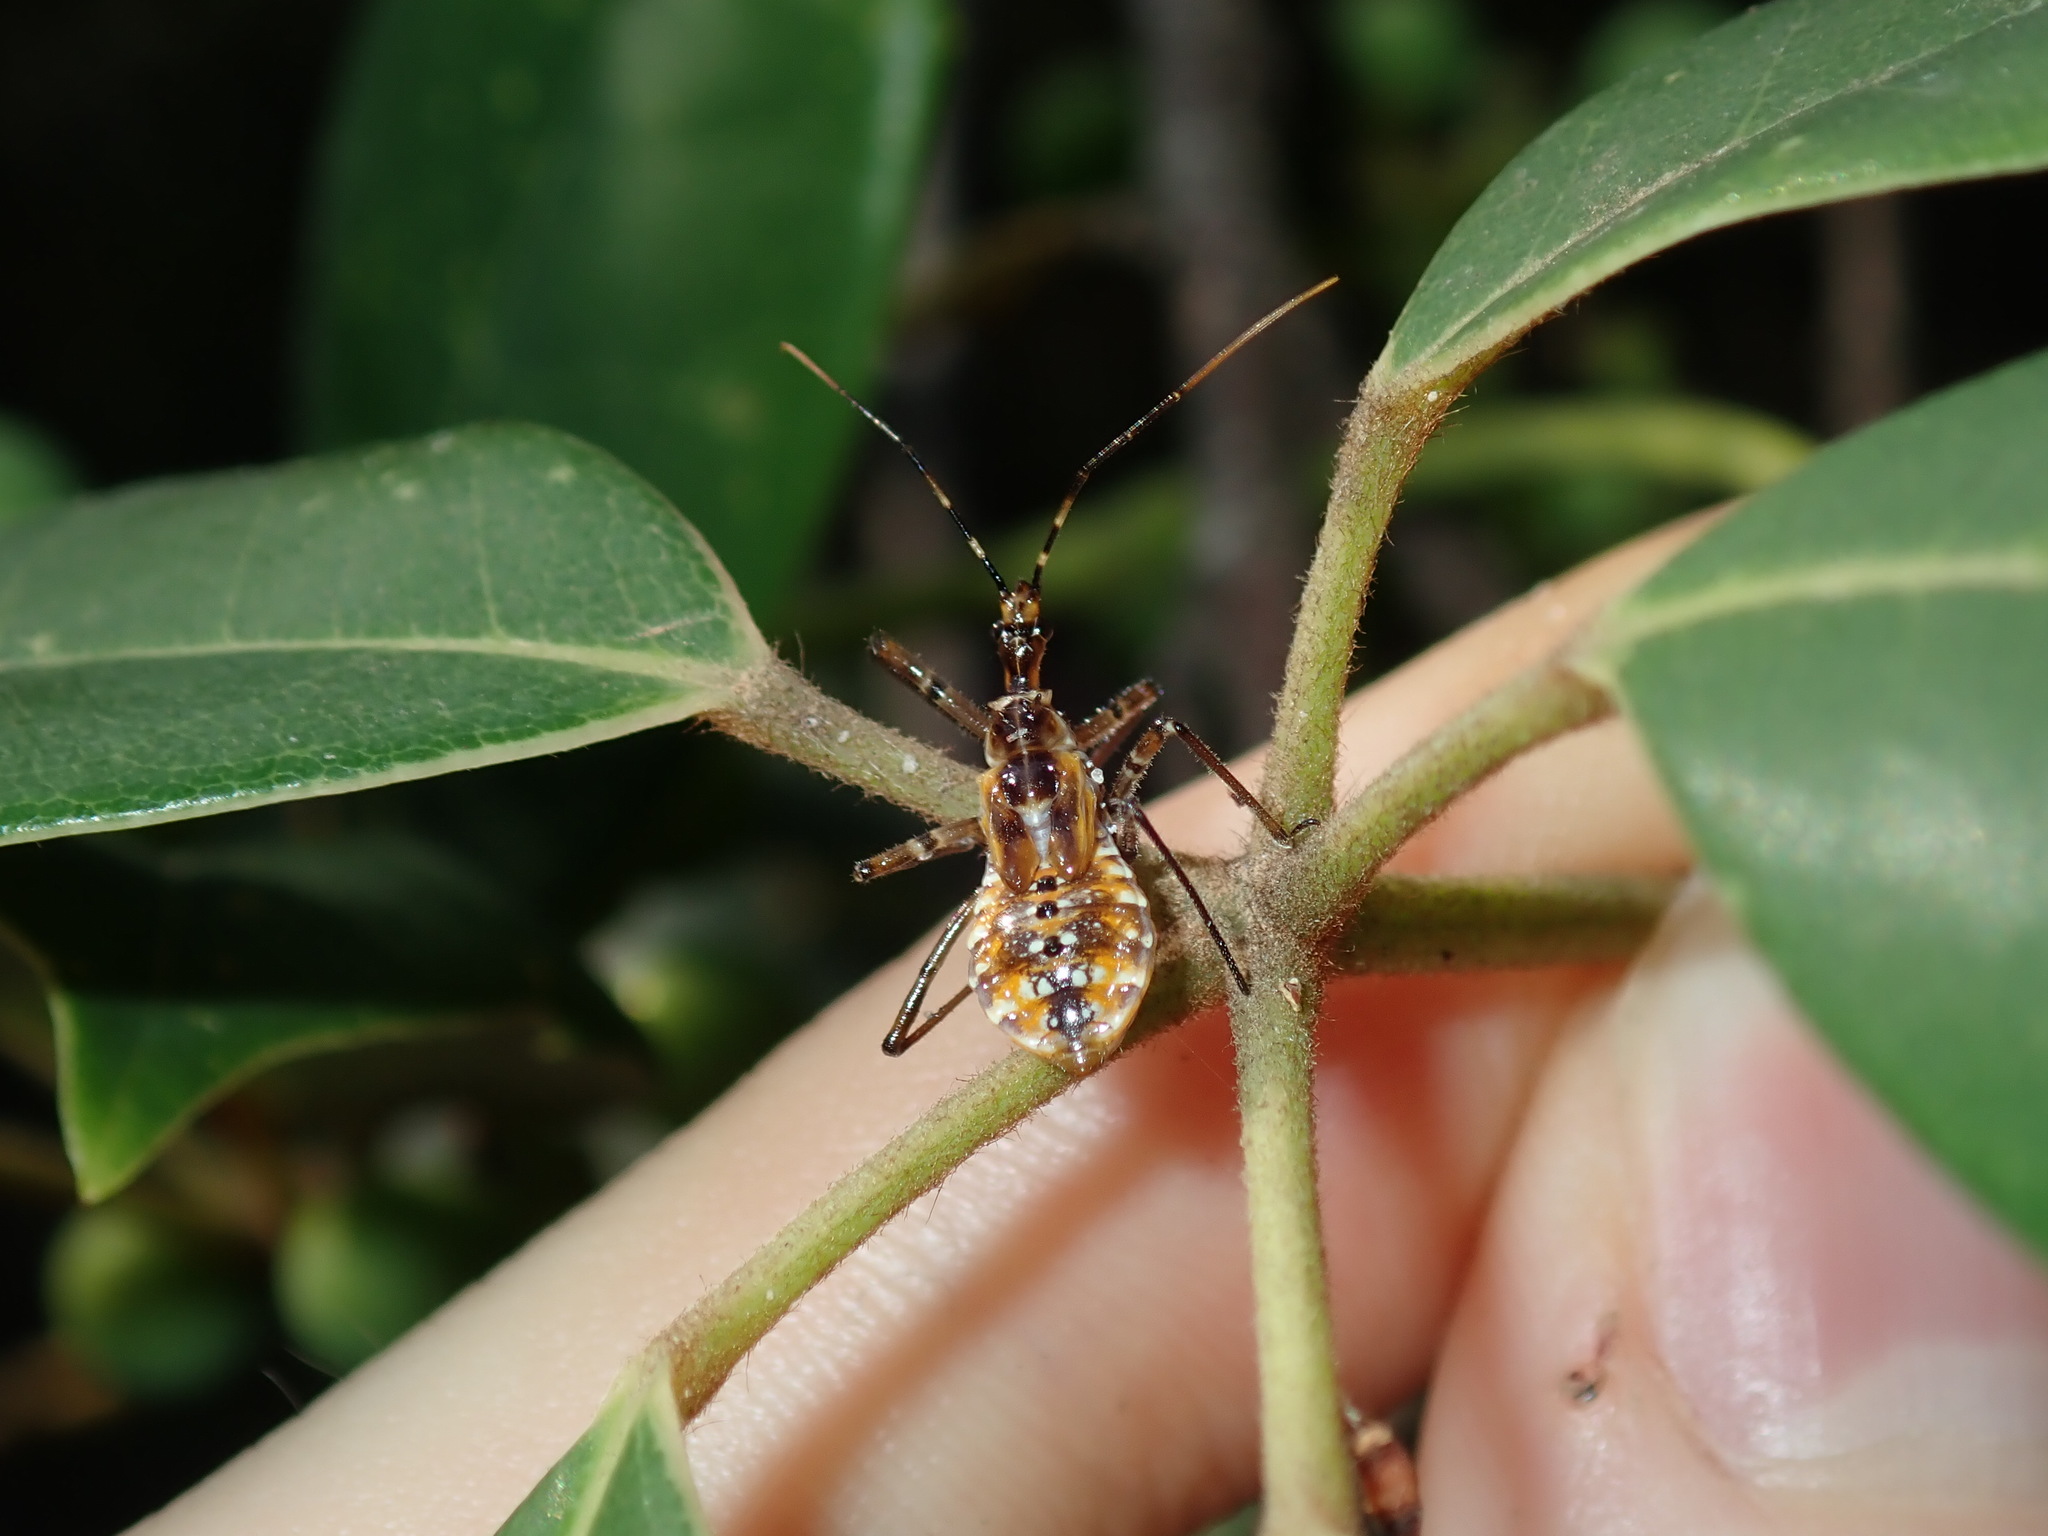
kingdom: Animalia
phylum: Arthropoda
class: Insecta
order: Hemiptera
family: Reduviidae
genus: Pristhesancus
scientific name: Pristhesancus plagipennis
